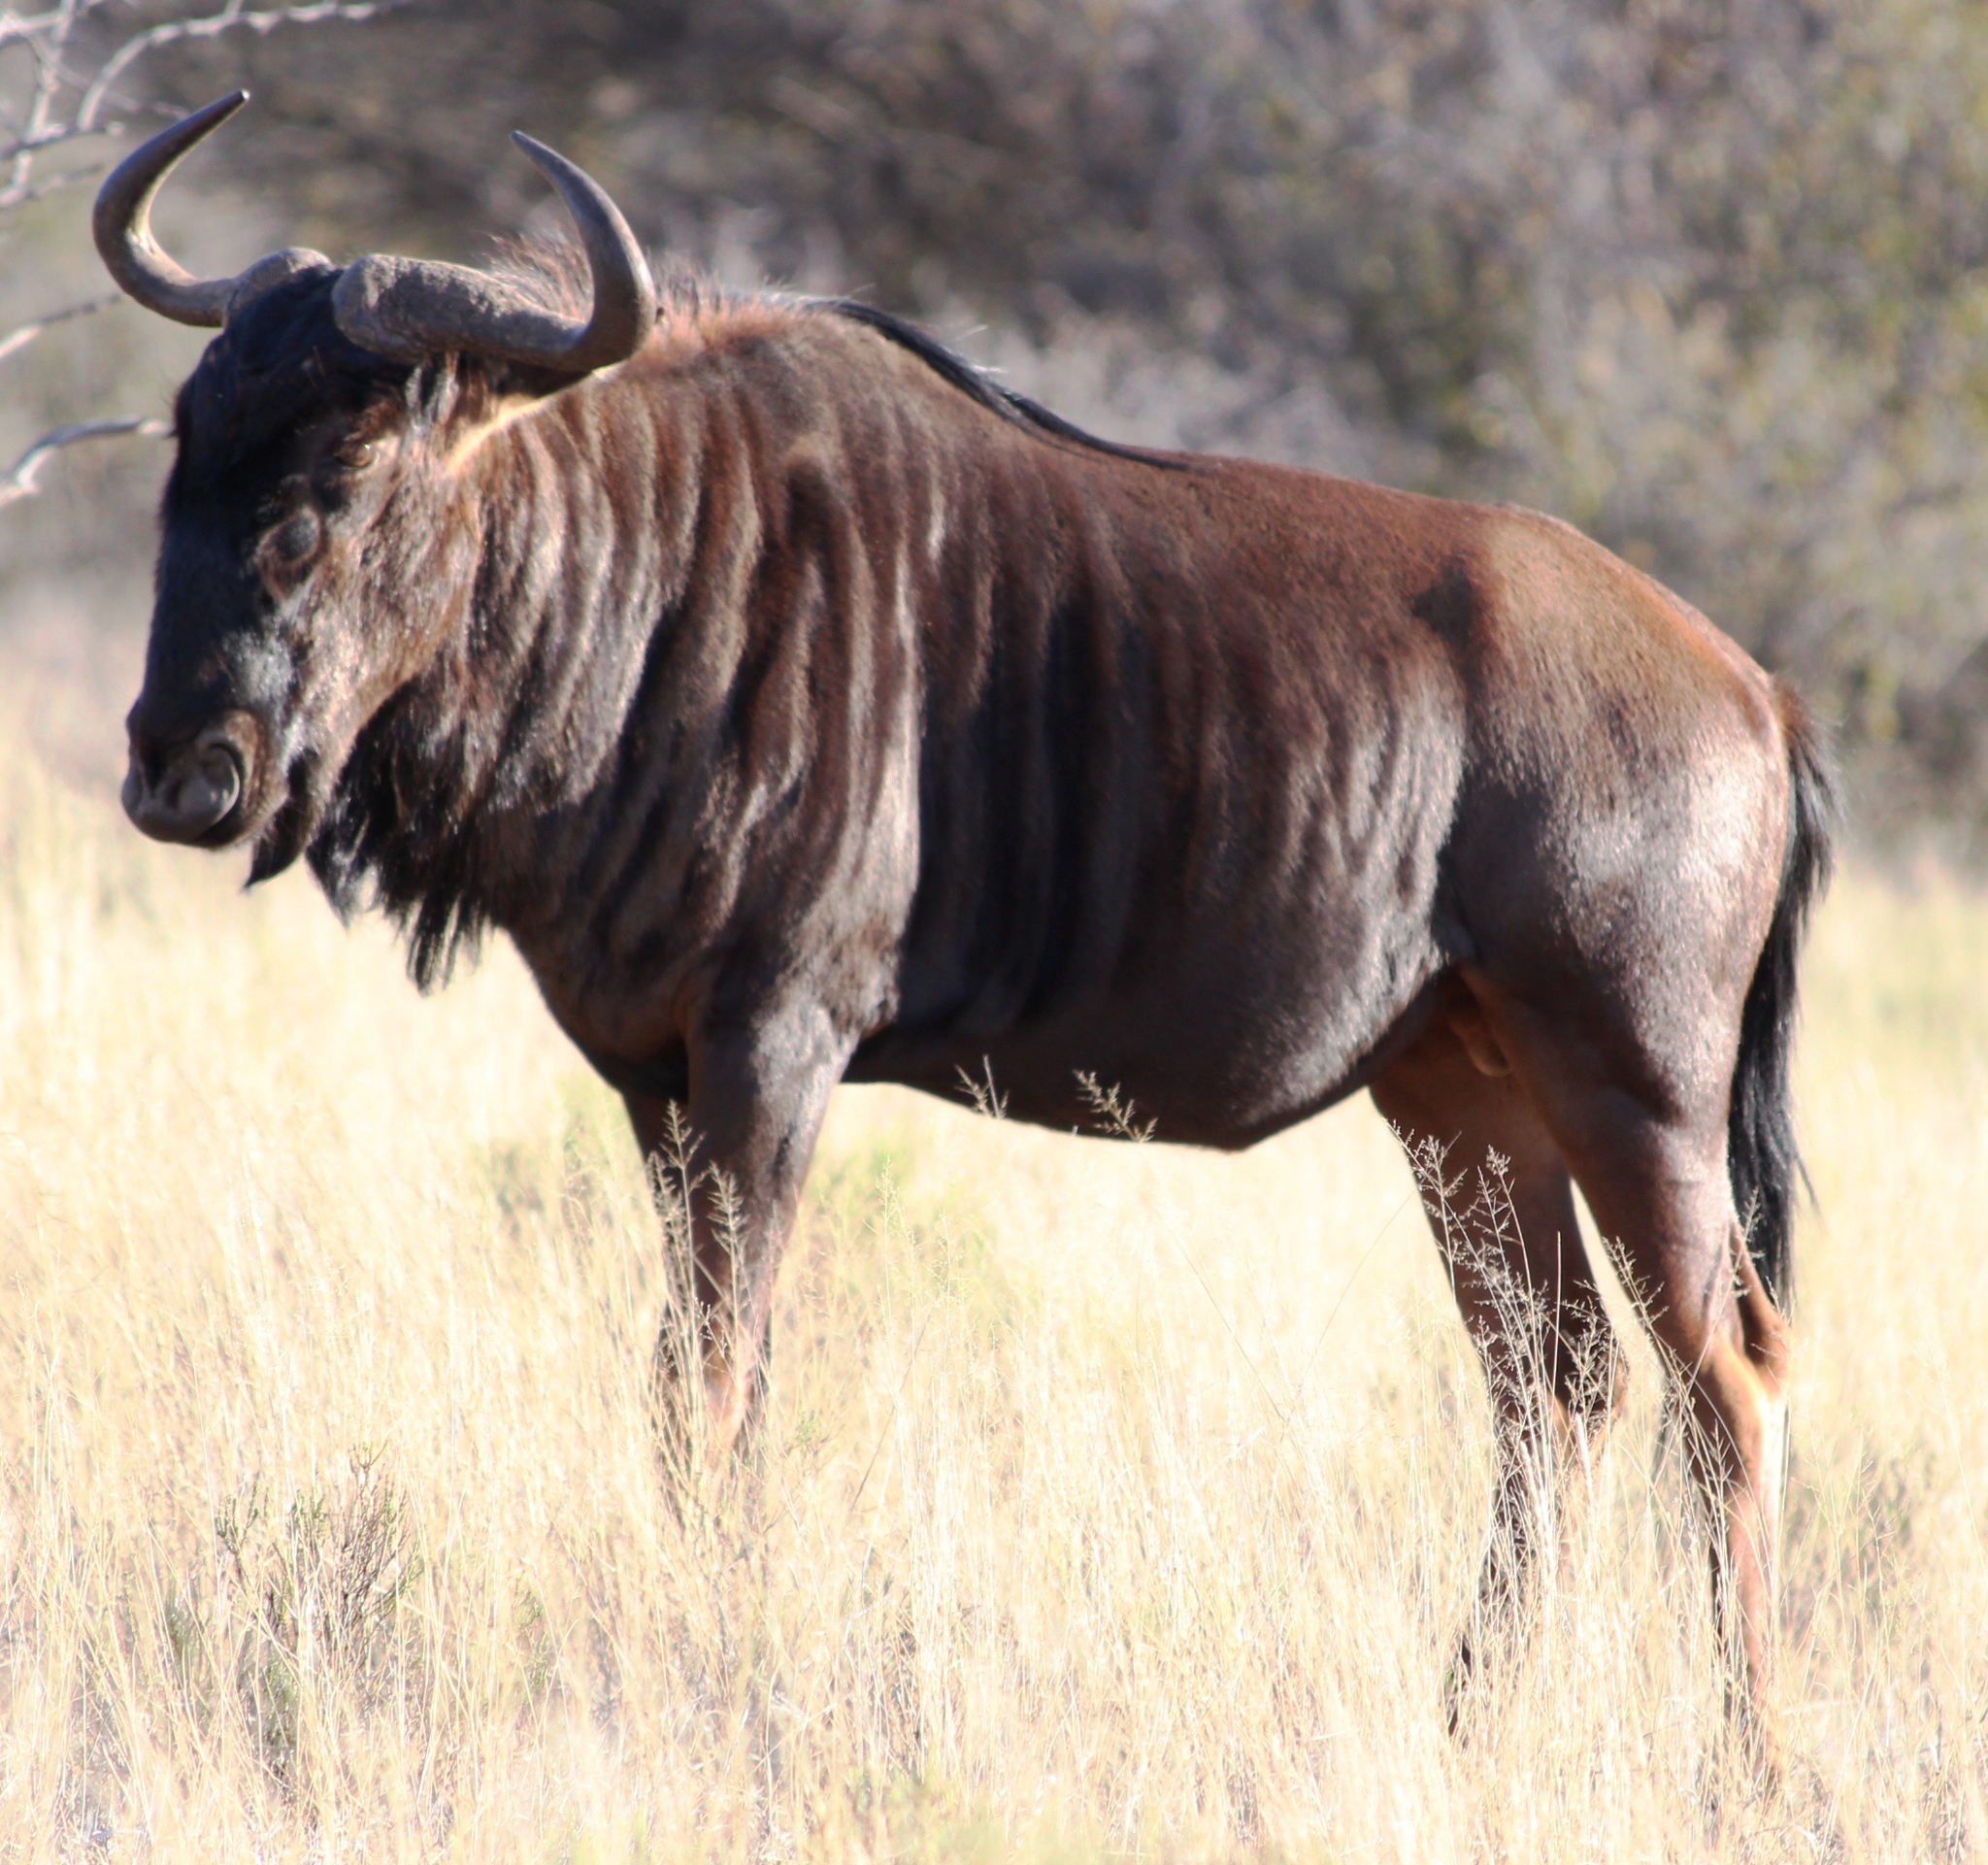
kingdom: Animalia
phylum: Chordata
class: Mammalia
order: Artiodactyla
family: Bovidae
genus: Connochaetes
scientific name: Connochaetes taurinus
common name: Blue wildebeest
